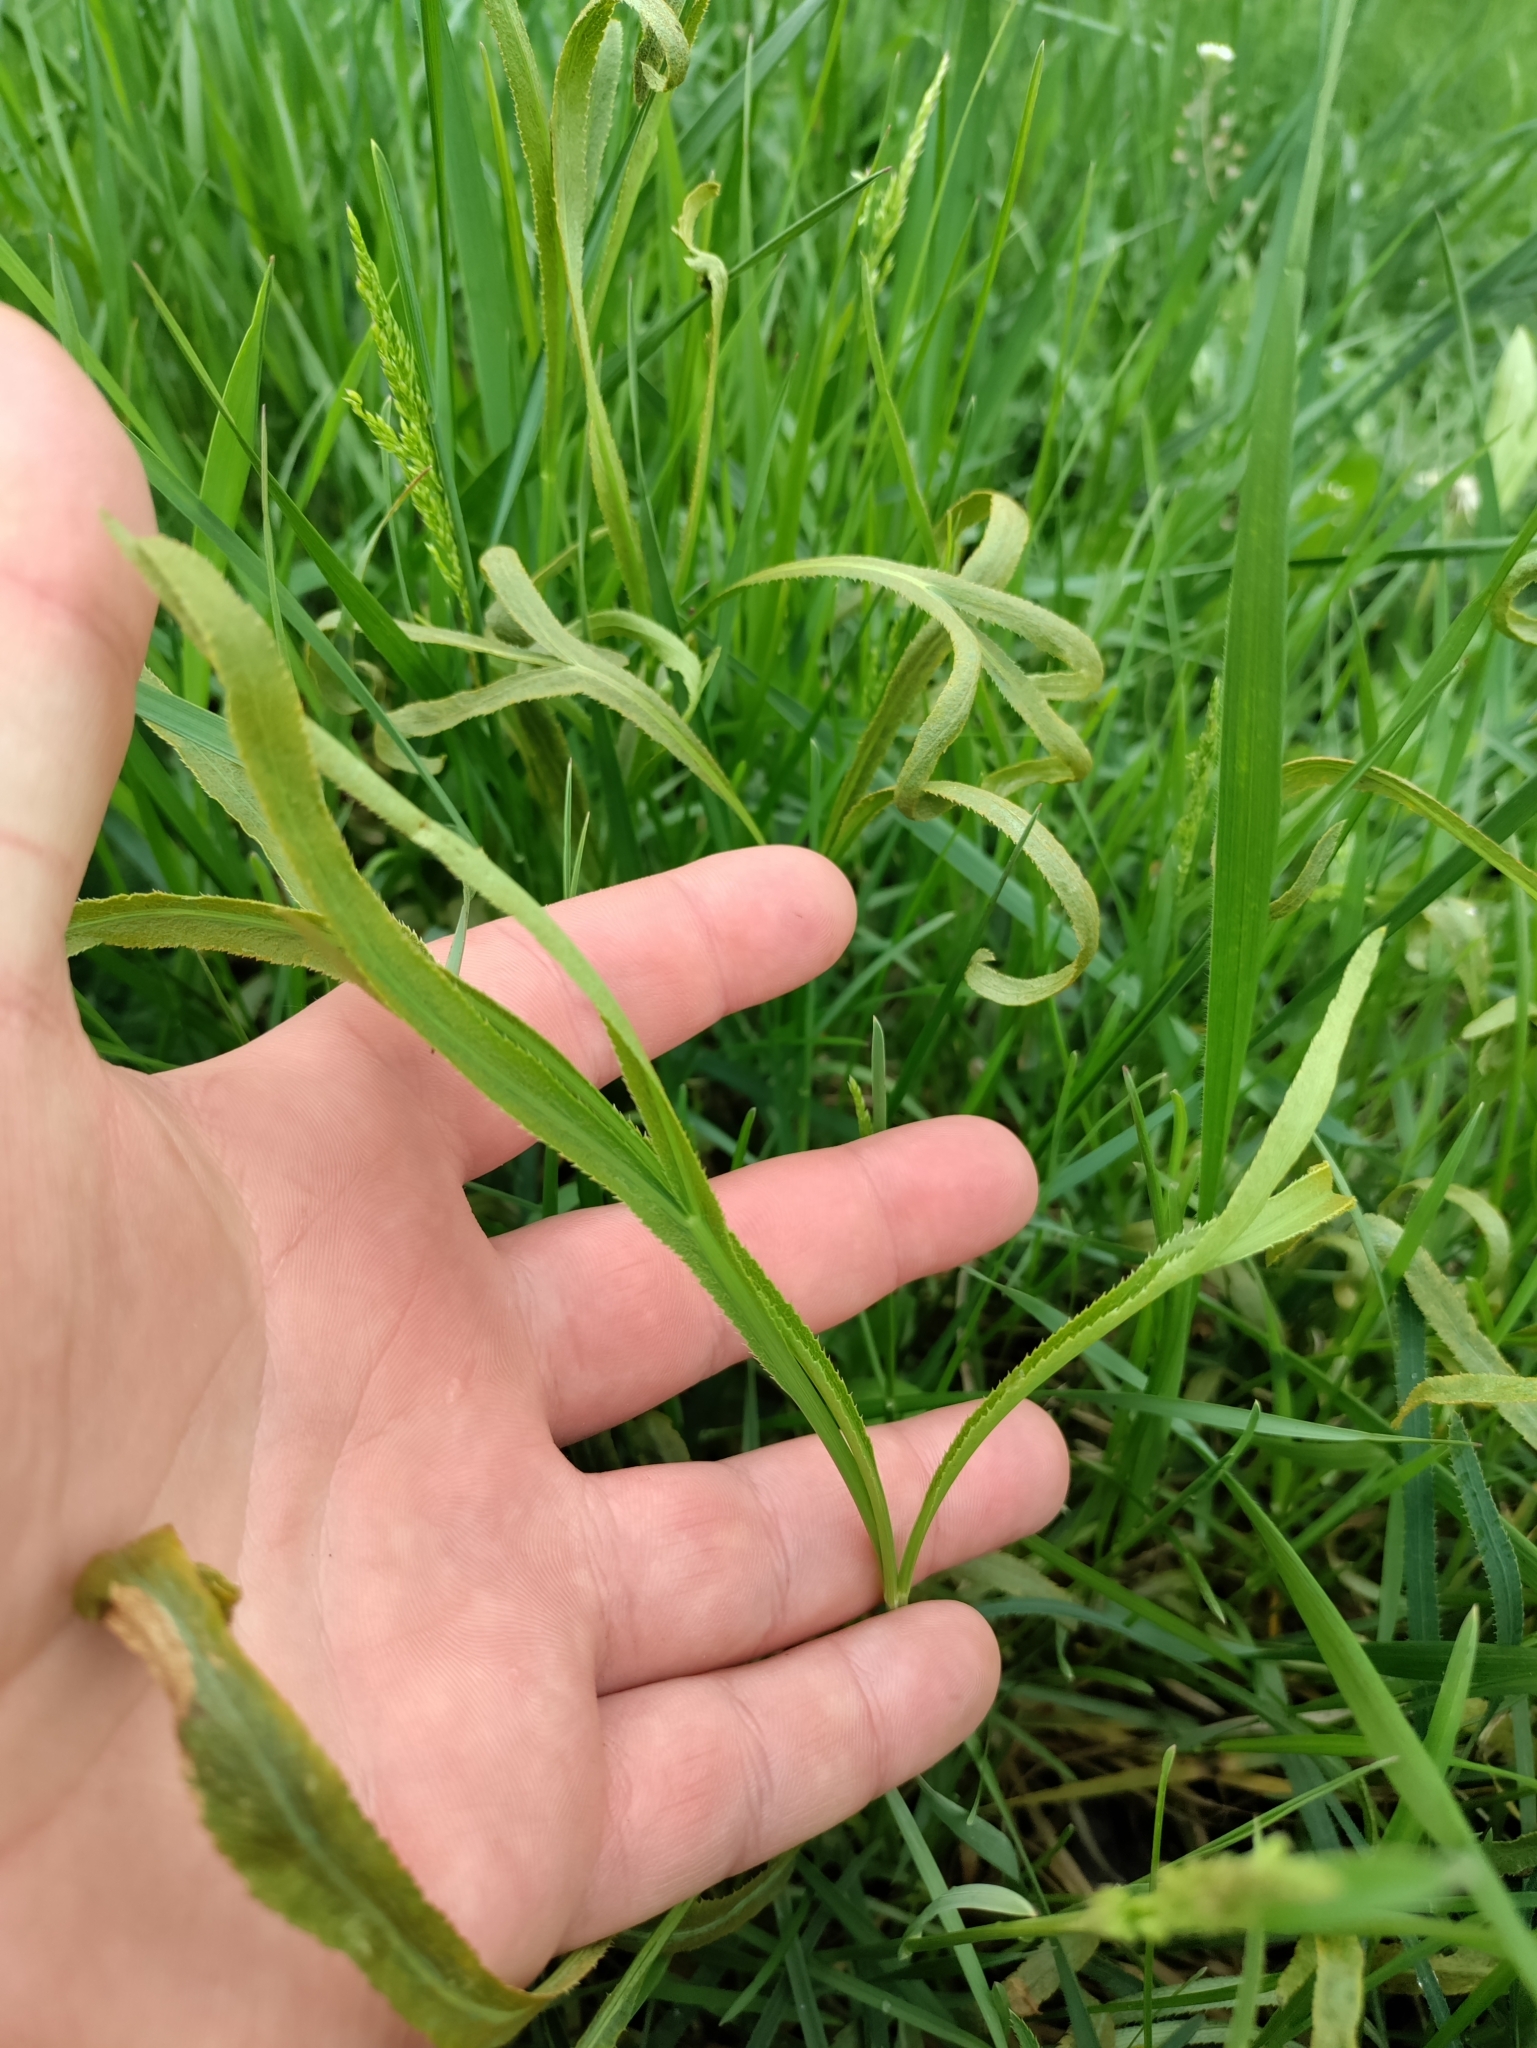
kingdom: Plantae
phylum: Tracheophyta
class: Magnoliopsida
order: Apiales
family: Apiaceae
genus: Falcaria
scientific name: Falcaria vulgaris
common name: Longleaf
